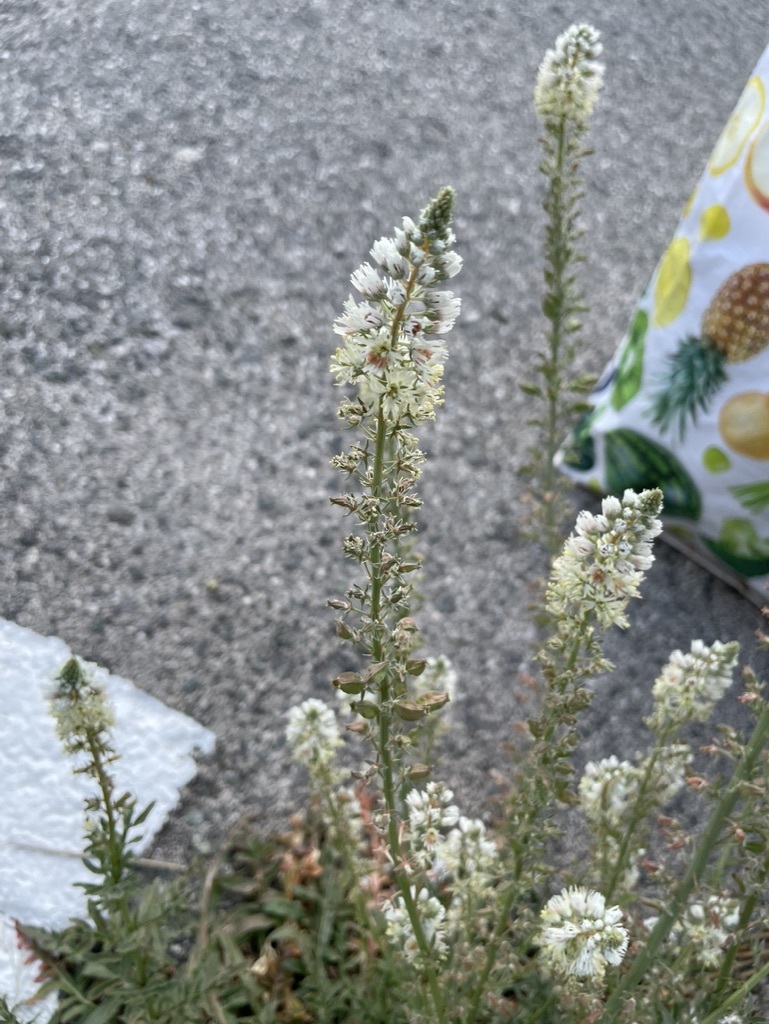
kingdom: Plantae
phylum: Tracheophyta
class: Magnoliopsida
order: Brassicales
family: Resedaceae
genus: Reseda
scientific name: Reseda alba
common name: White mignonette
